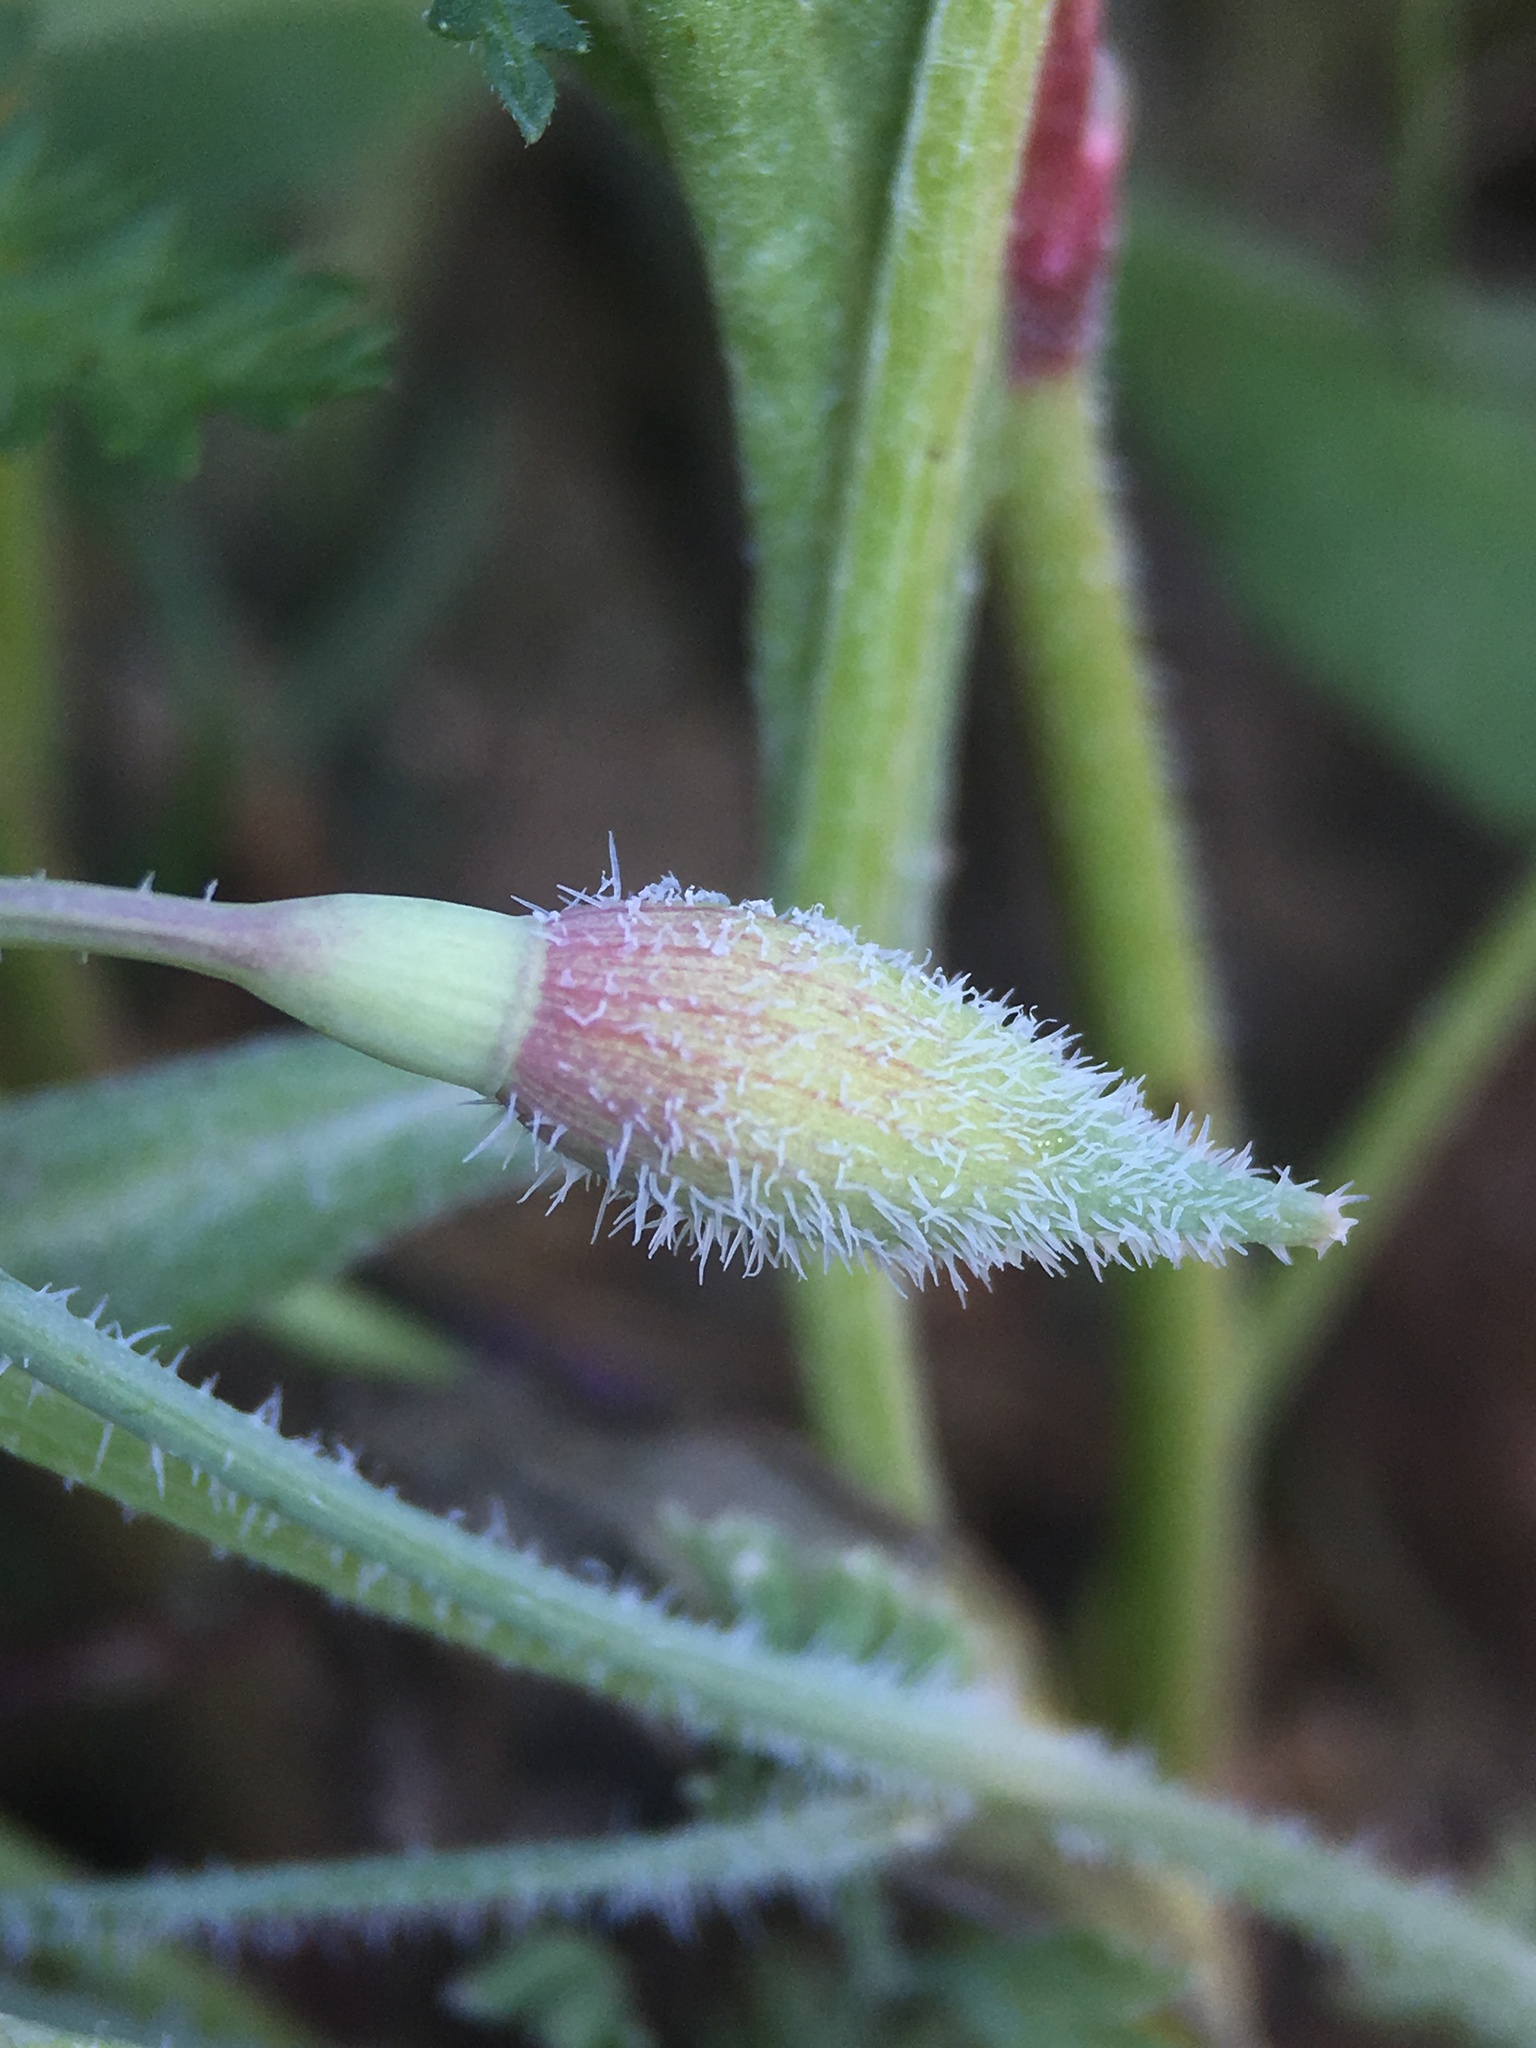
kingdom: Plantae
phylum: Tracheophyta
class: Magnoliopsida
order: Ranunculales
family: Papaveraceae
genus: Eschscholzia
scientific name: Eschscholzia hypecoides
